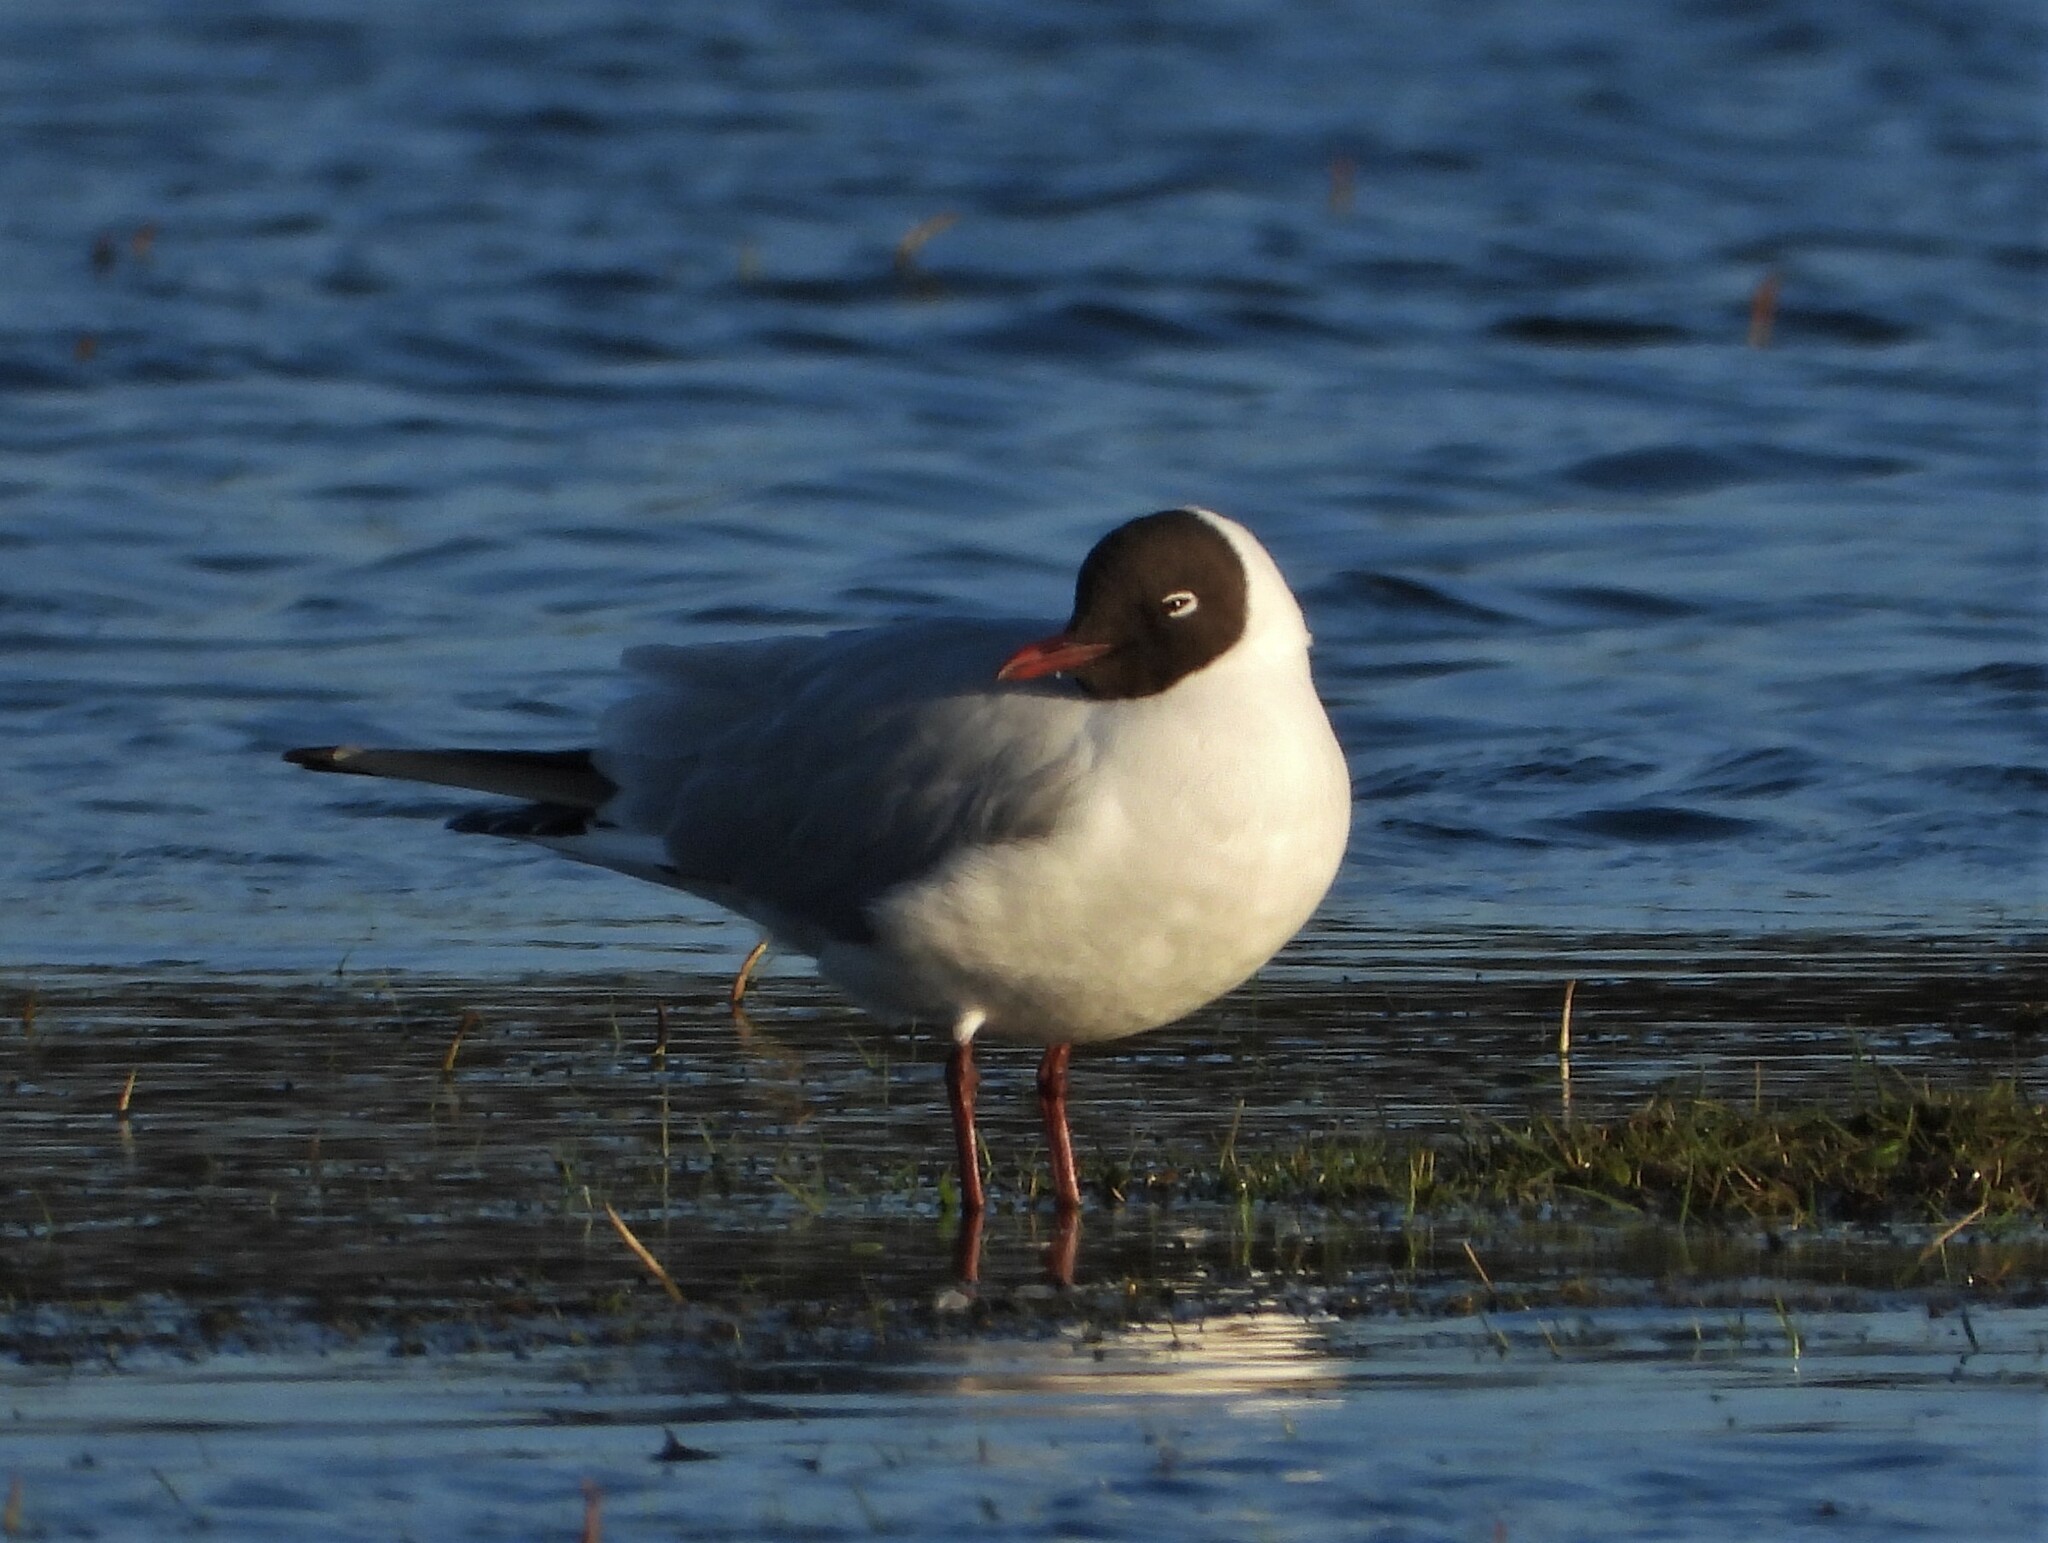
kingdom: Animalia
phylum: Chordata
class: Aves
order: Charadriiformes
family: Laridae
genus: Chroicocephalus
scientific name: Chroicocephalus ridibundus
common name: Black-headed gull
